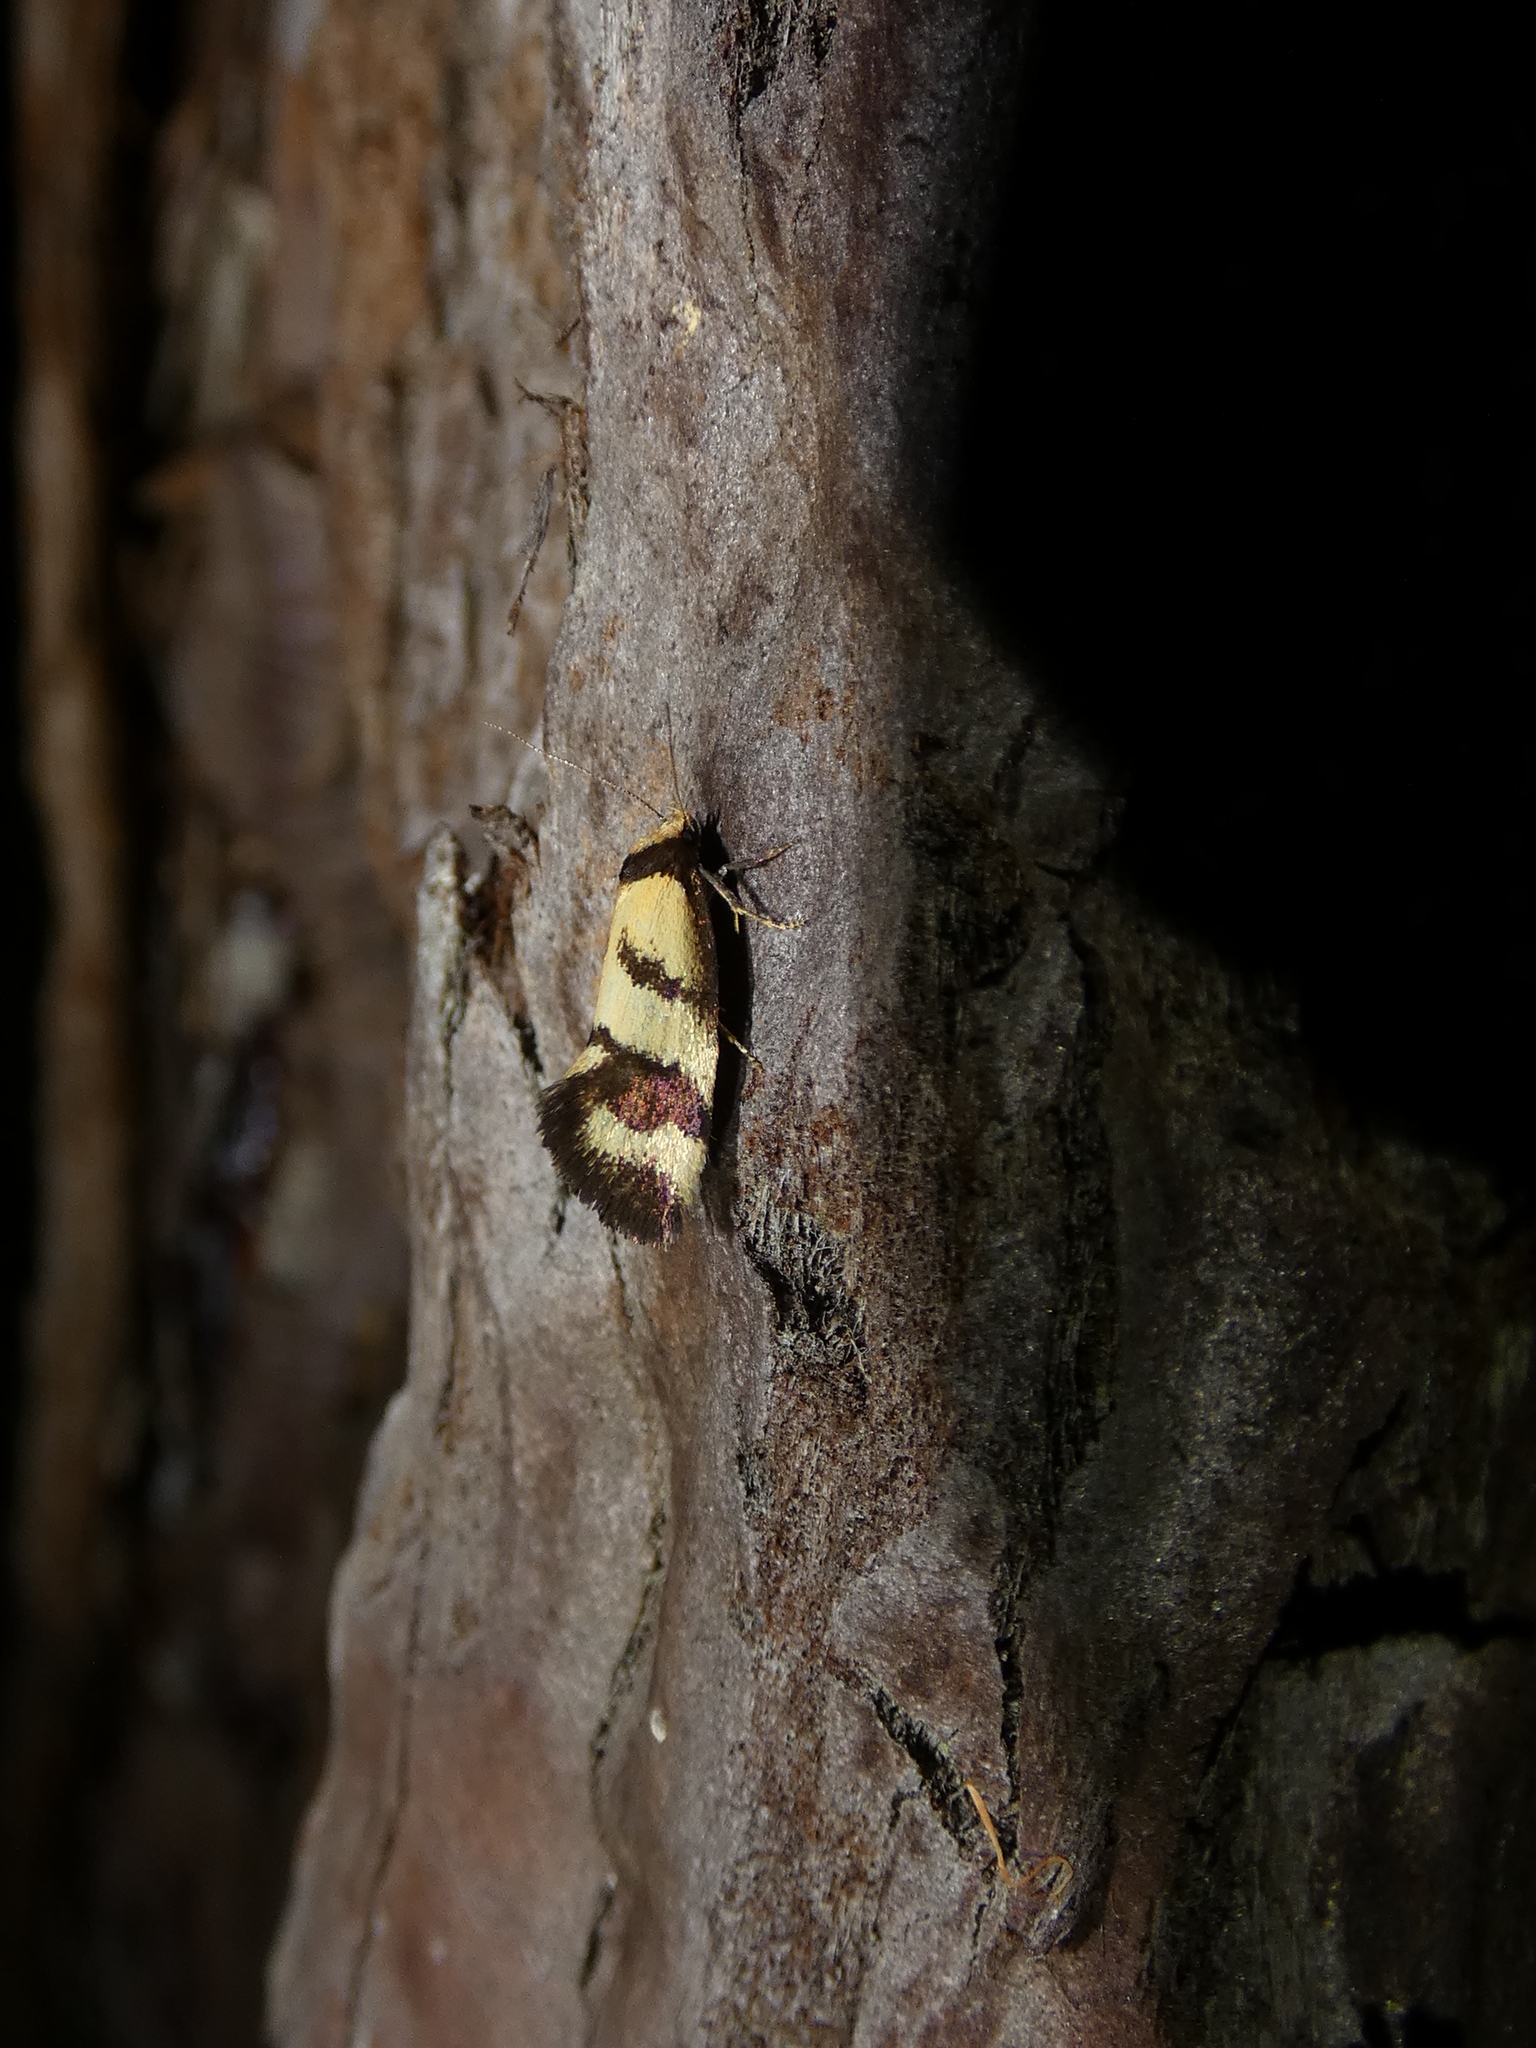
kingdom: Animalia
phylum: Arthropoda
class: Insecta
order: Lepidoptera
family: Oecophoridae
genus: Olbonoma
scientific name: Olbonoma triptycha
